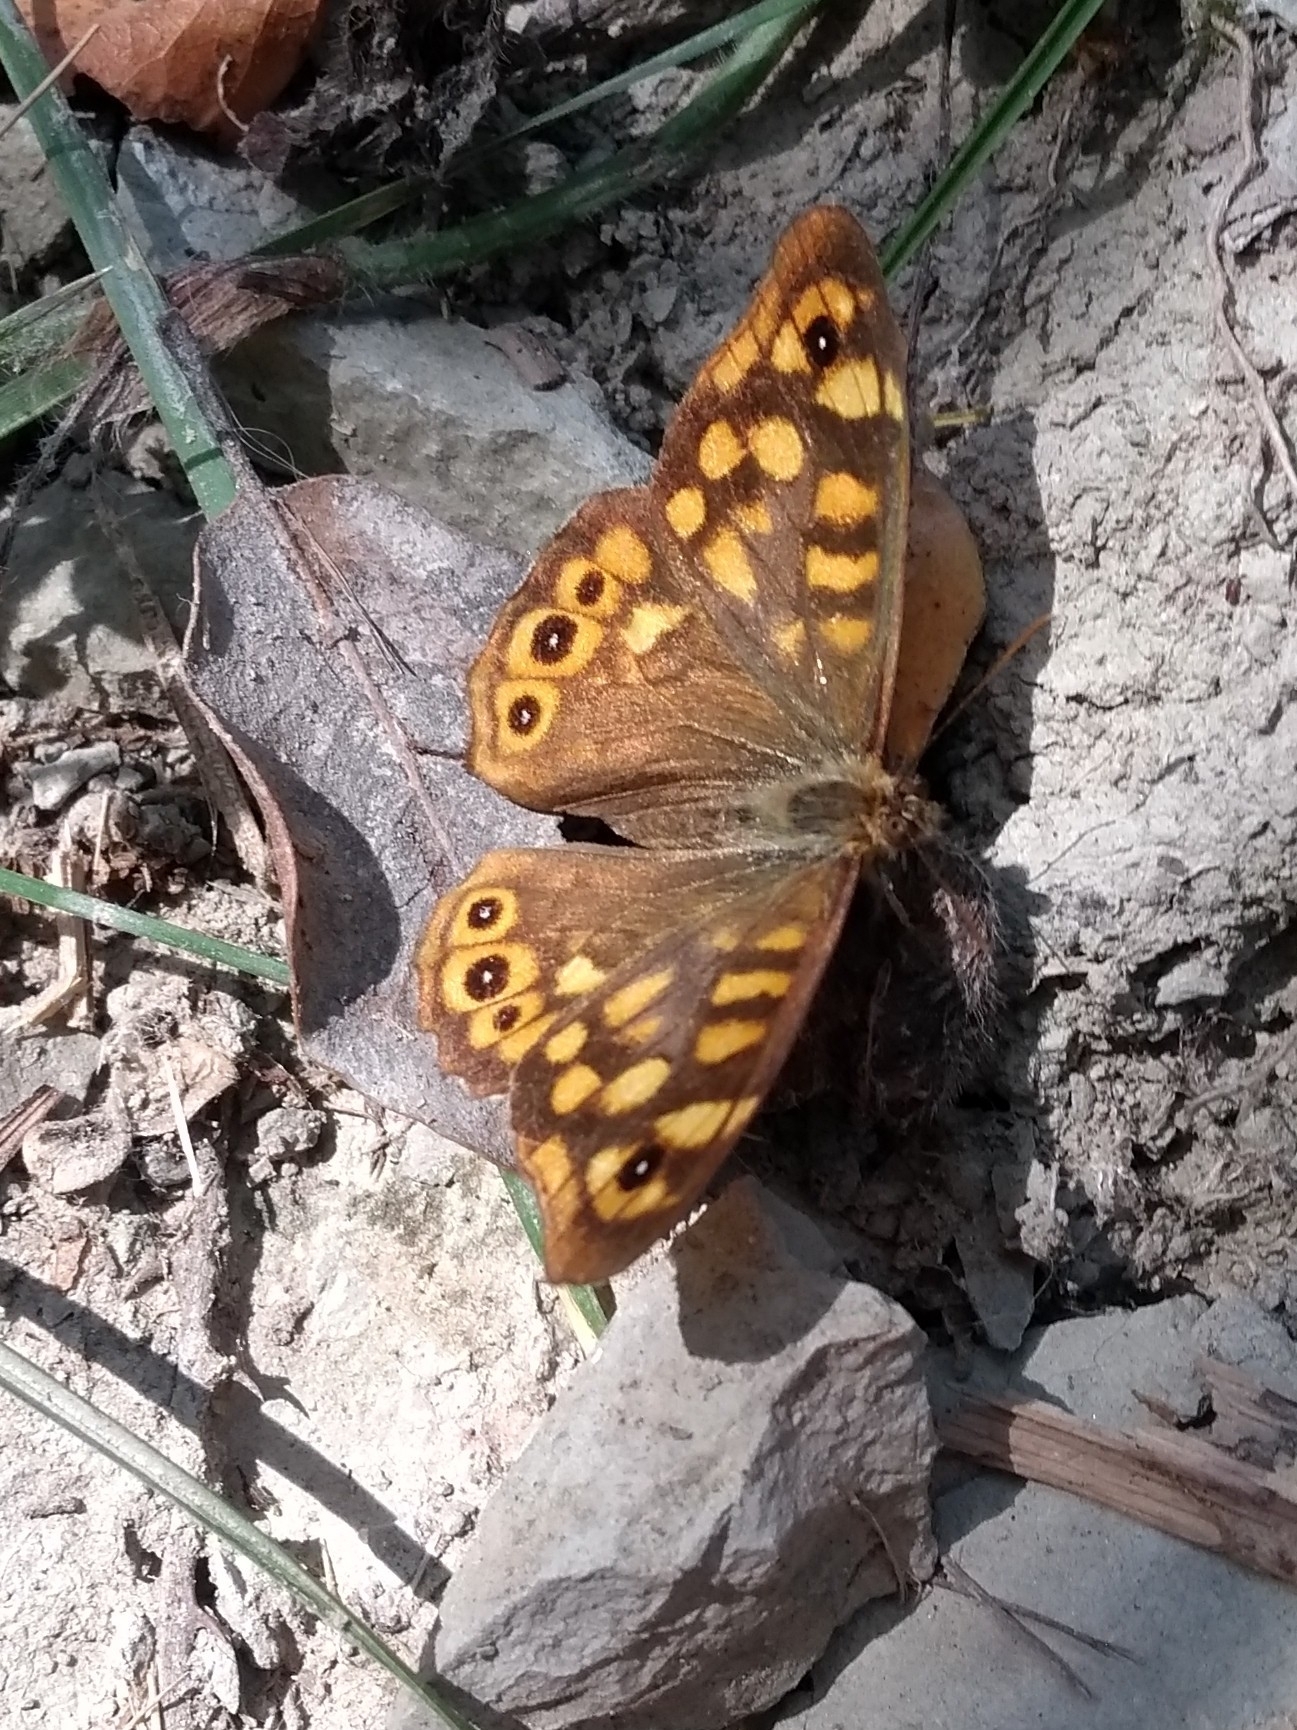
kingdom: Animalia
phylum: Arthropoda
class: Insecta
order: Lepidoptera
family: Nymphalidae
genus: Pararge
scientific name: Pararge aegeria
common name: Speckled wood
